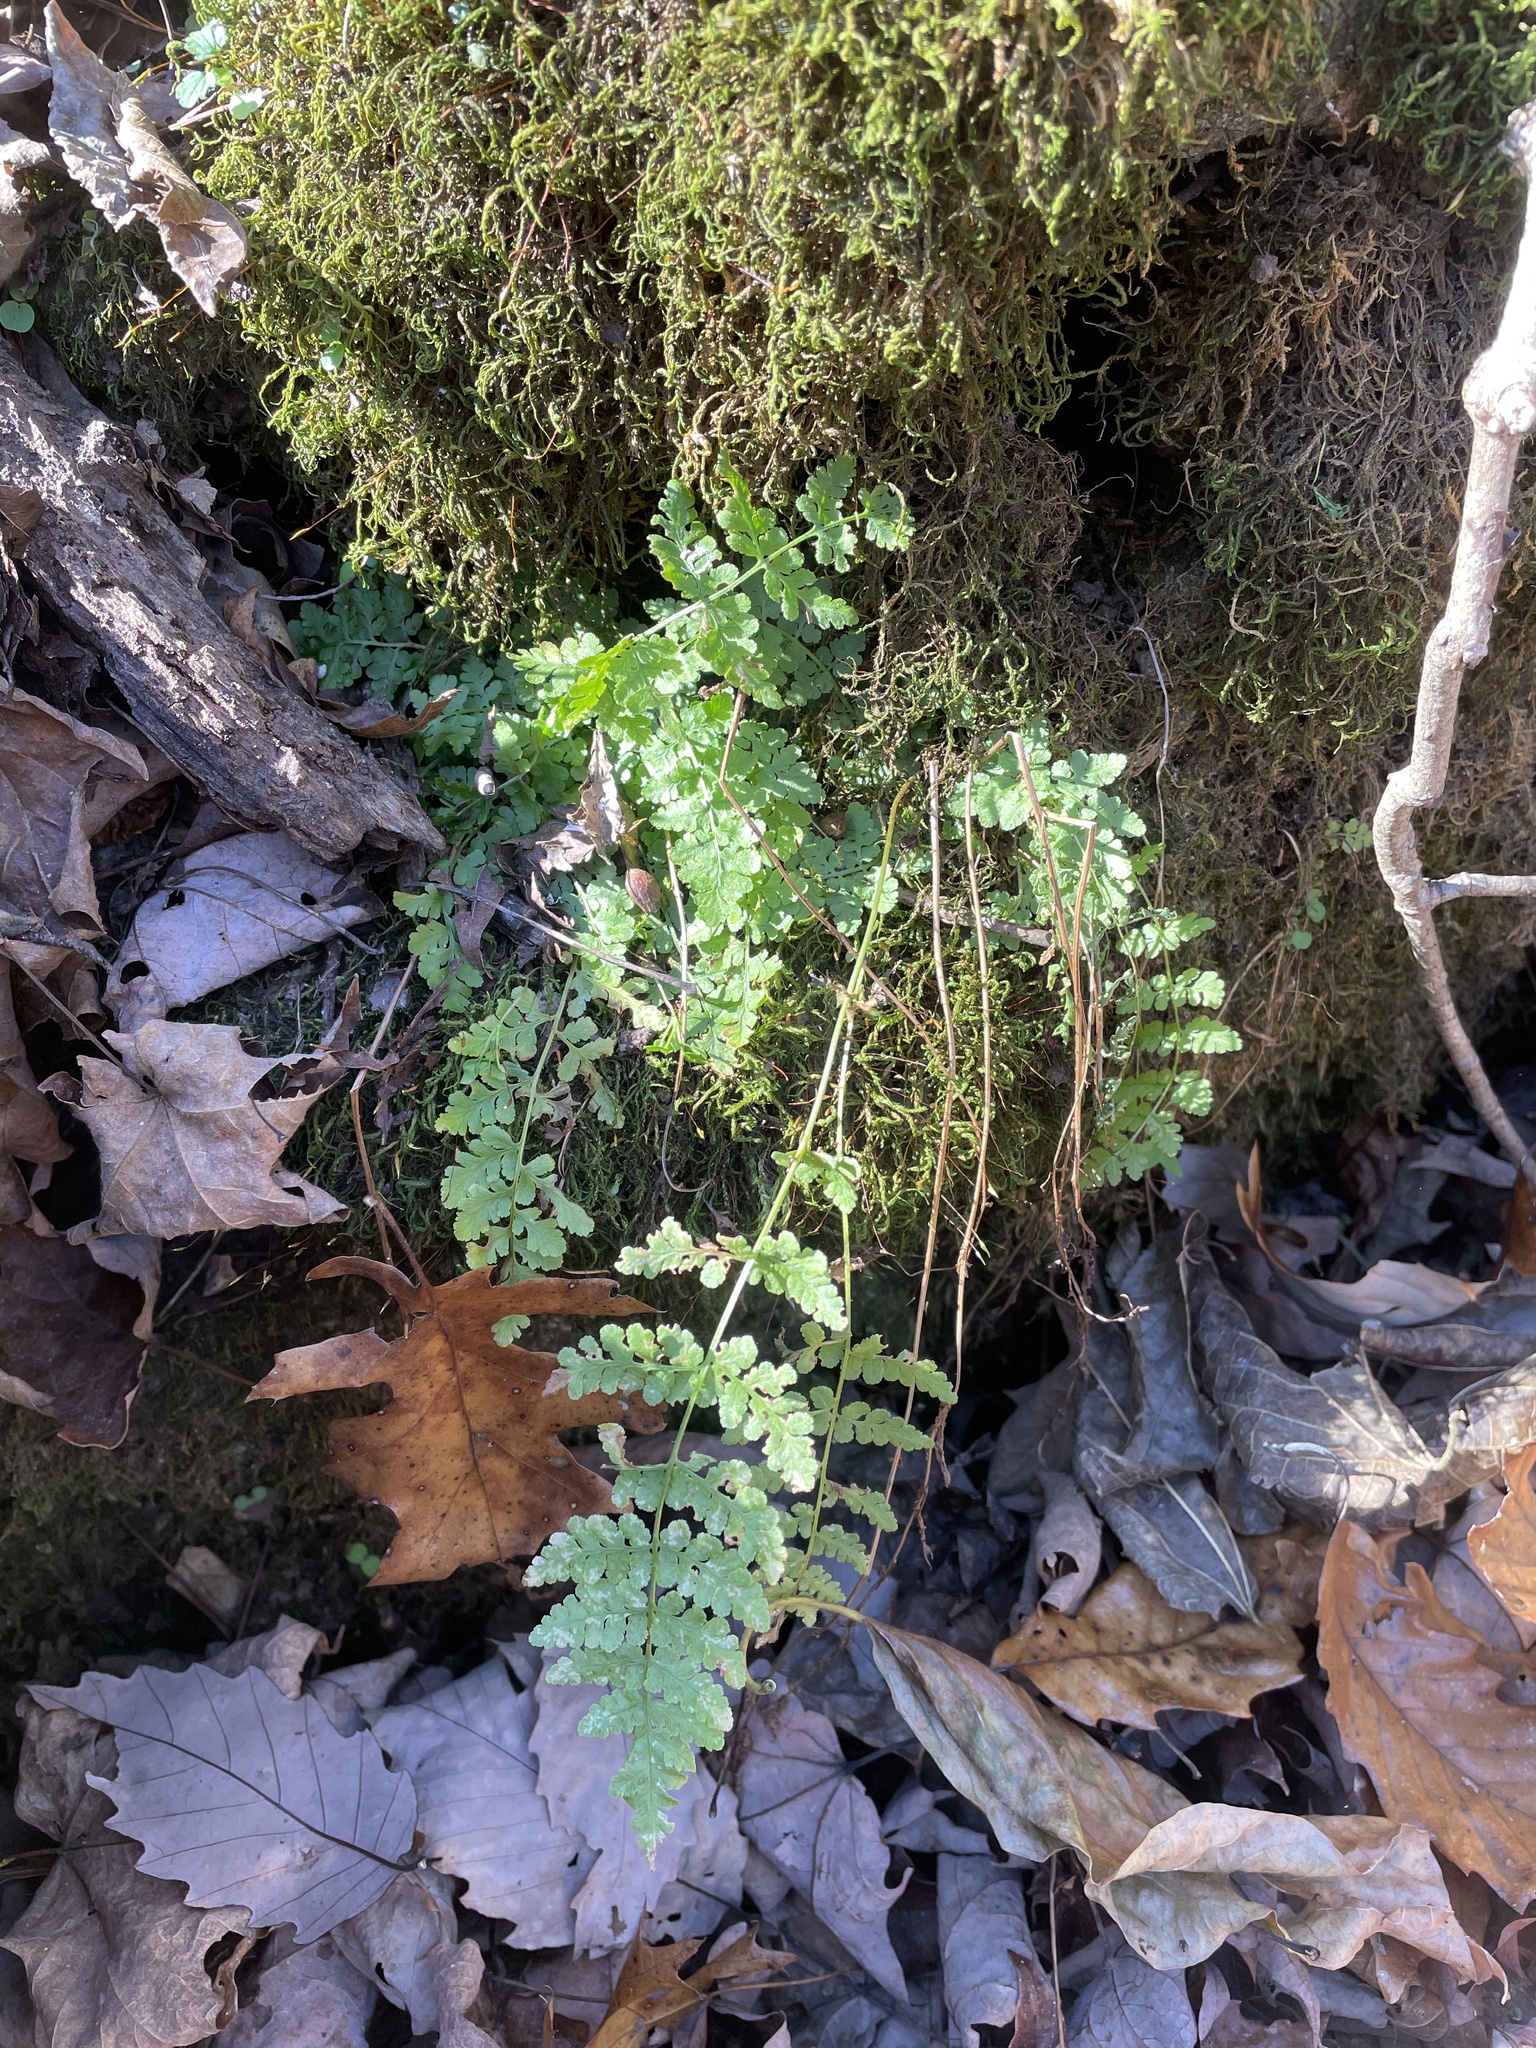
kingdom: Plantae
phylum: Tracheophyta
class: Polypodiopsida
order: Polypodiales
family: Woodsiaceae
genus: Physematium
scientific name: Physematium obtusum
